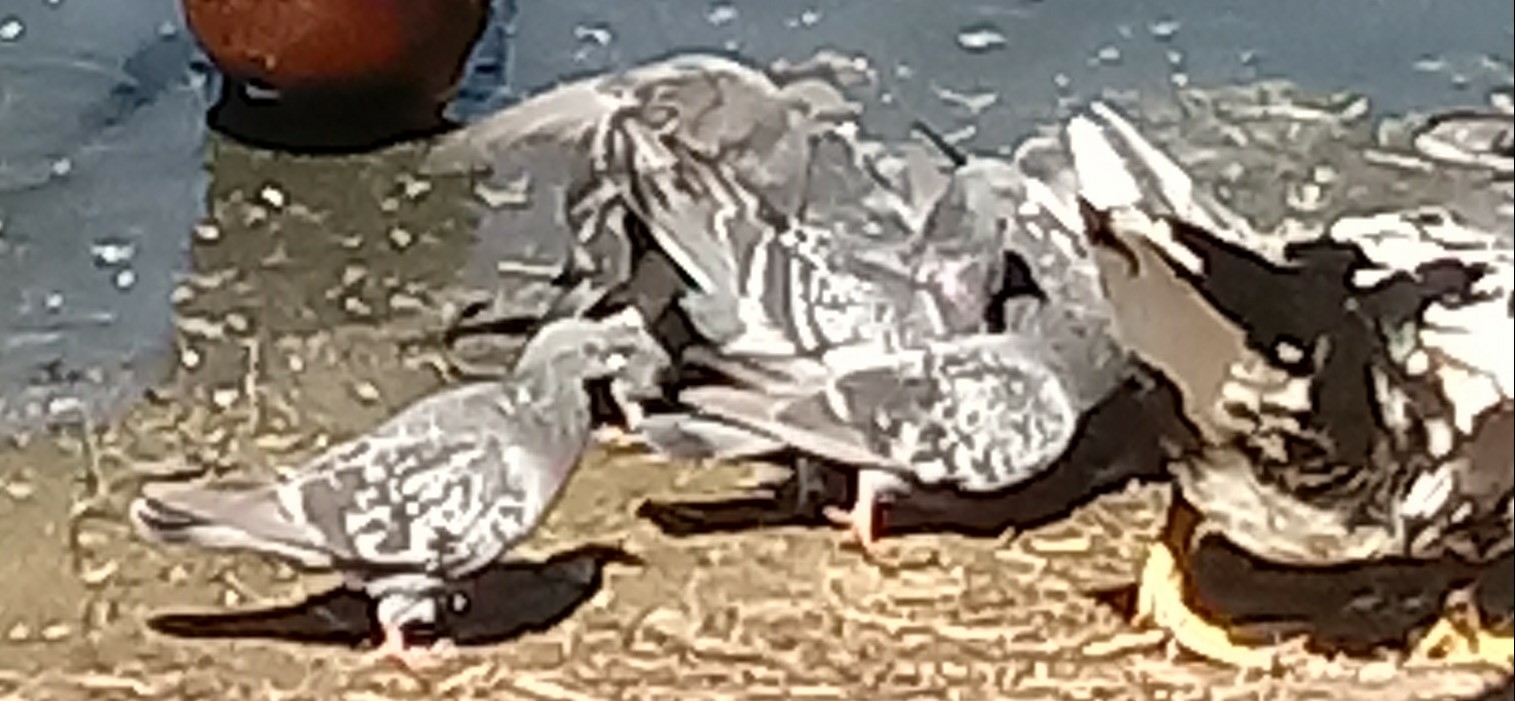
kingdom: Animalia
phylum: Chordata
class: Aves
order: Columbiformes
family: Columbidae
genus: Columba
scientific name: Columba livia
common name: Rock pigeon
